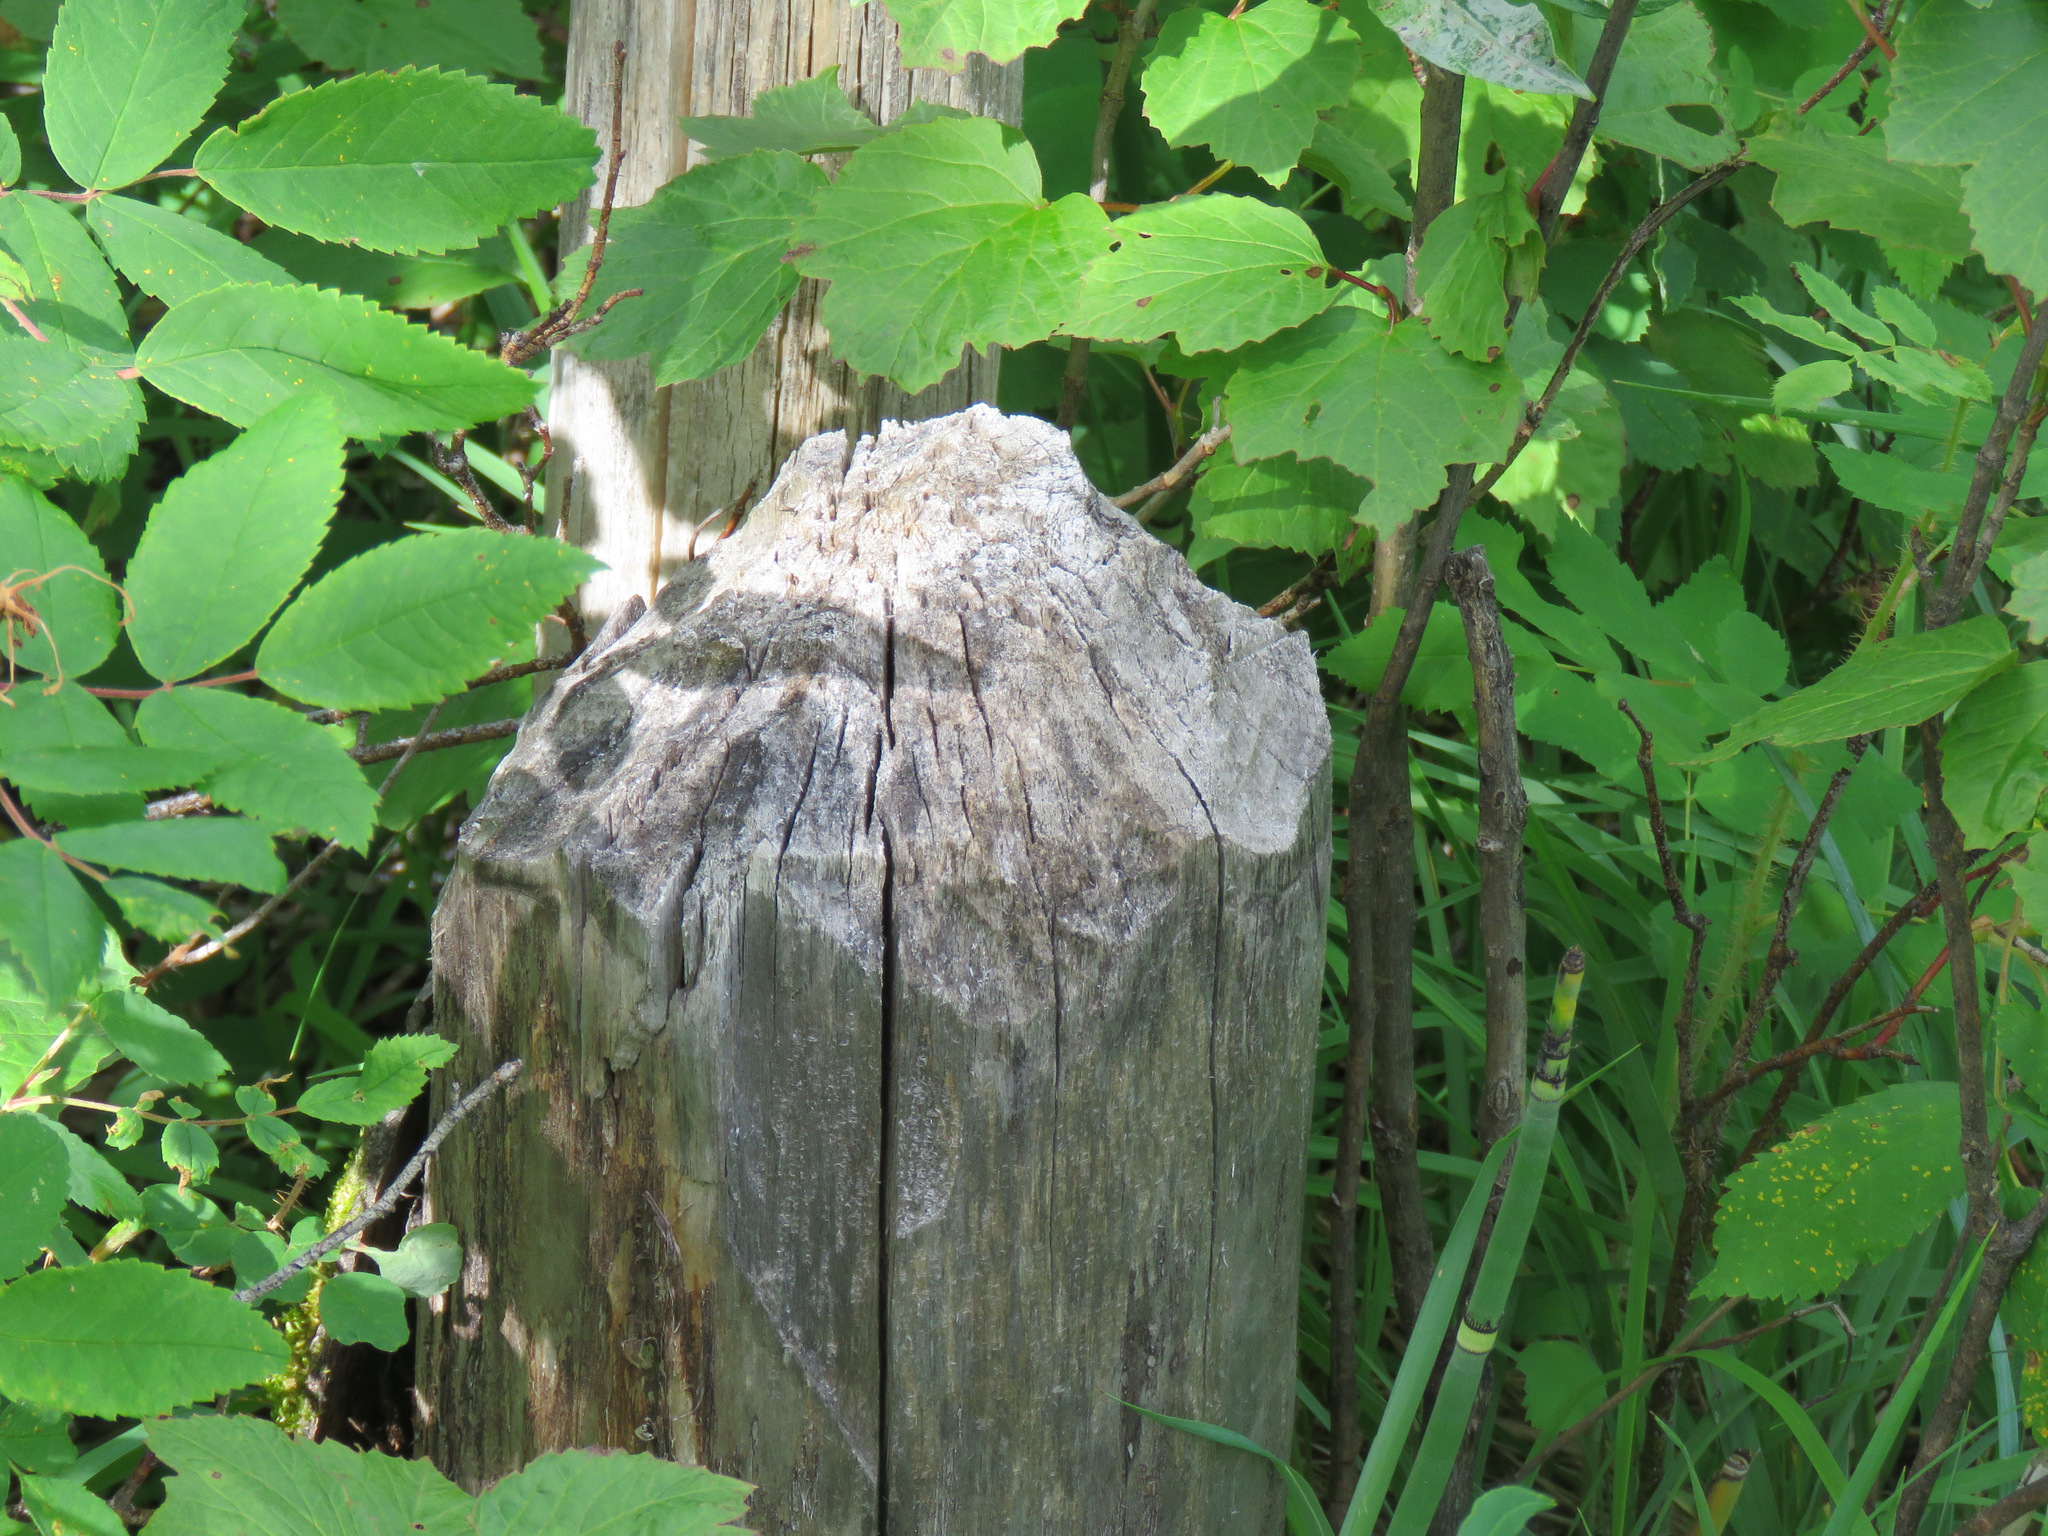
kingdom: Animalia
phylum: Chordata
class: Mammalia
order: Rodentia
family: Castoridae
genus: Castor
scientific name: Castor canadensis
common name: American beaver
